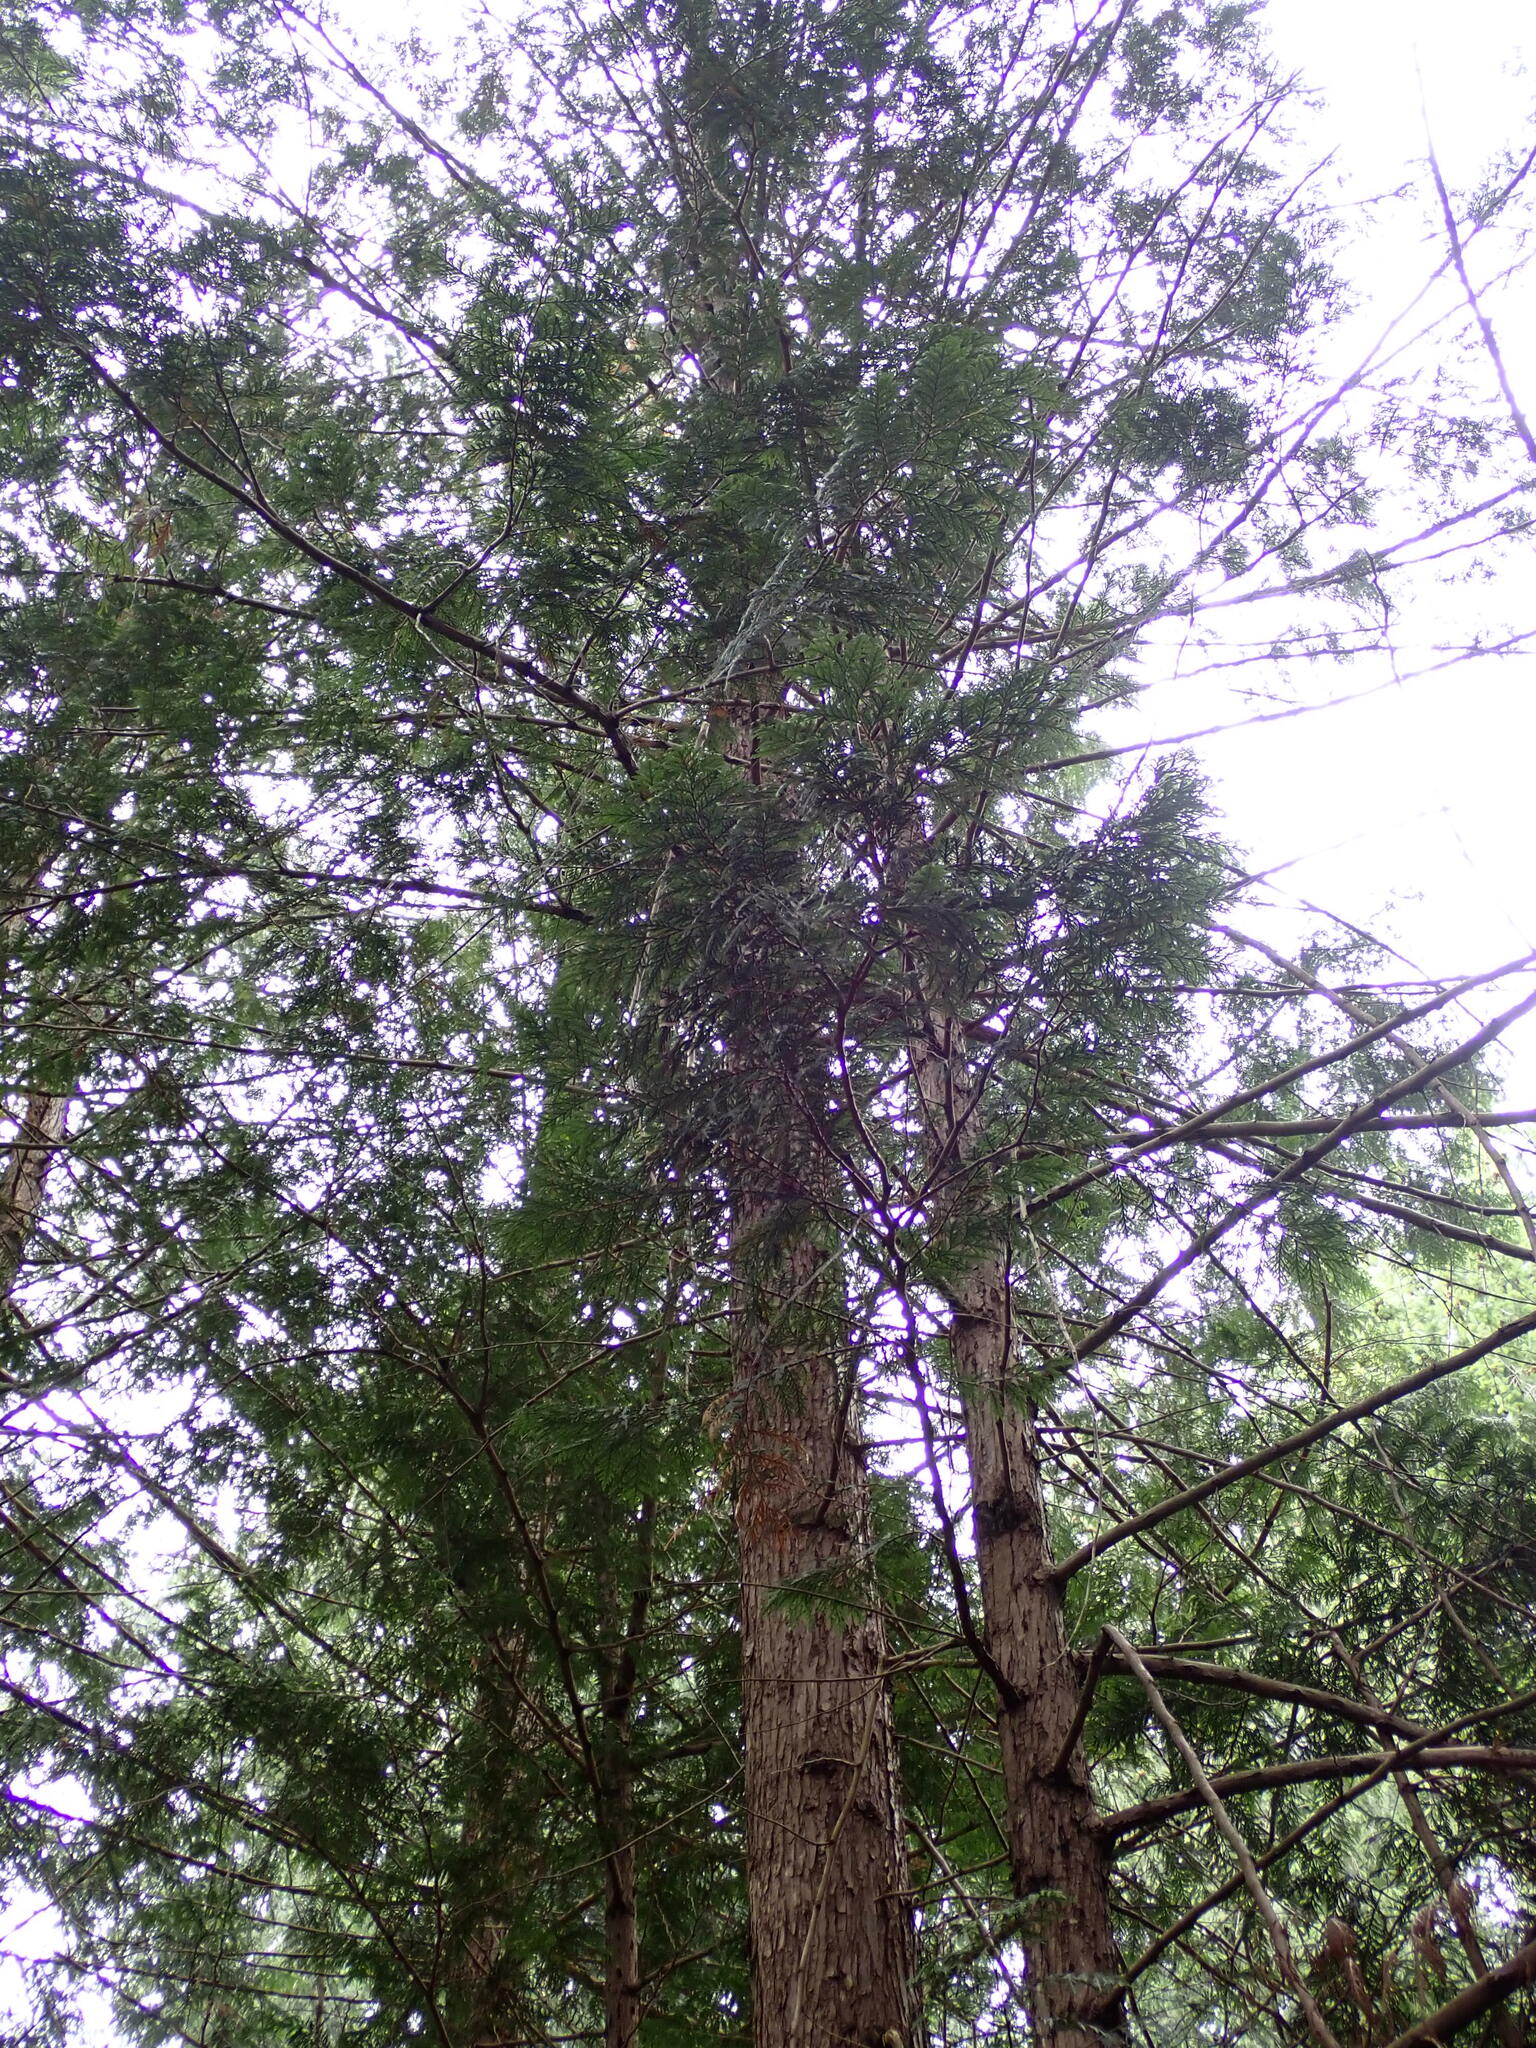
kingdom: Plantae
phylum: Tracheophyta
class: Pinopsida
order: Pinales
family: Cupressaceae
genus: Thuja
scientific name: Thuja plicata
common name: Western red-cedar
